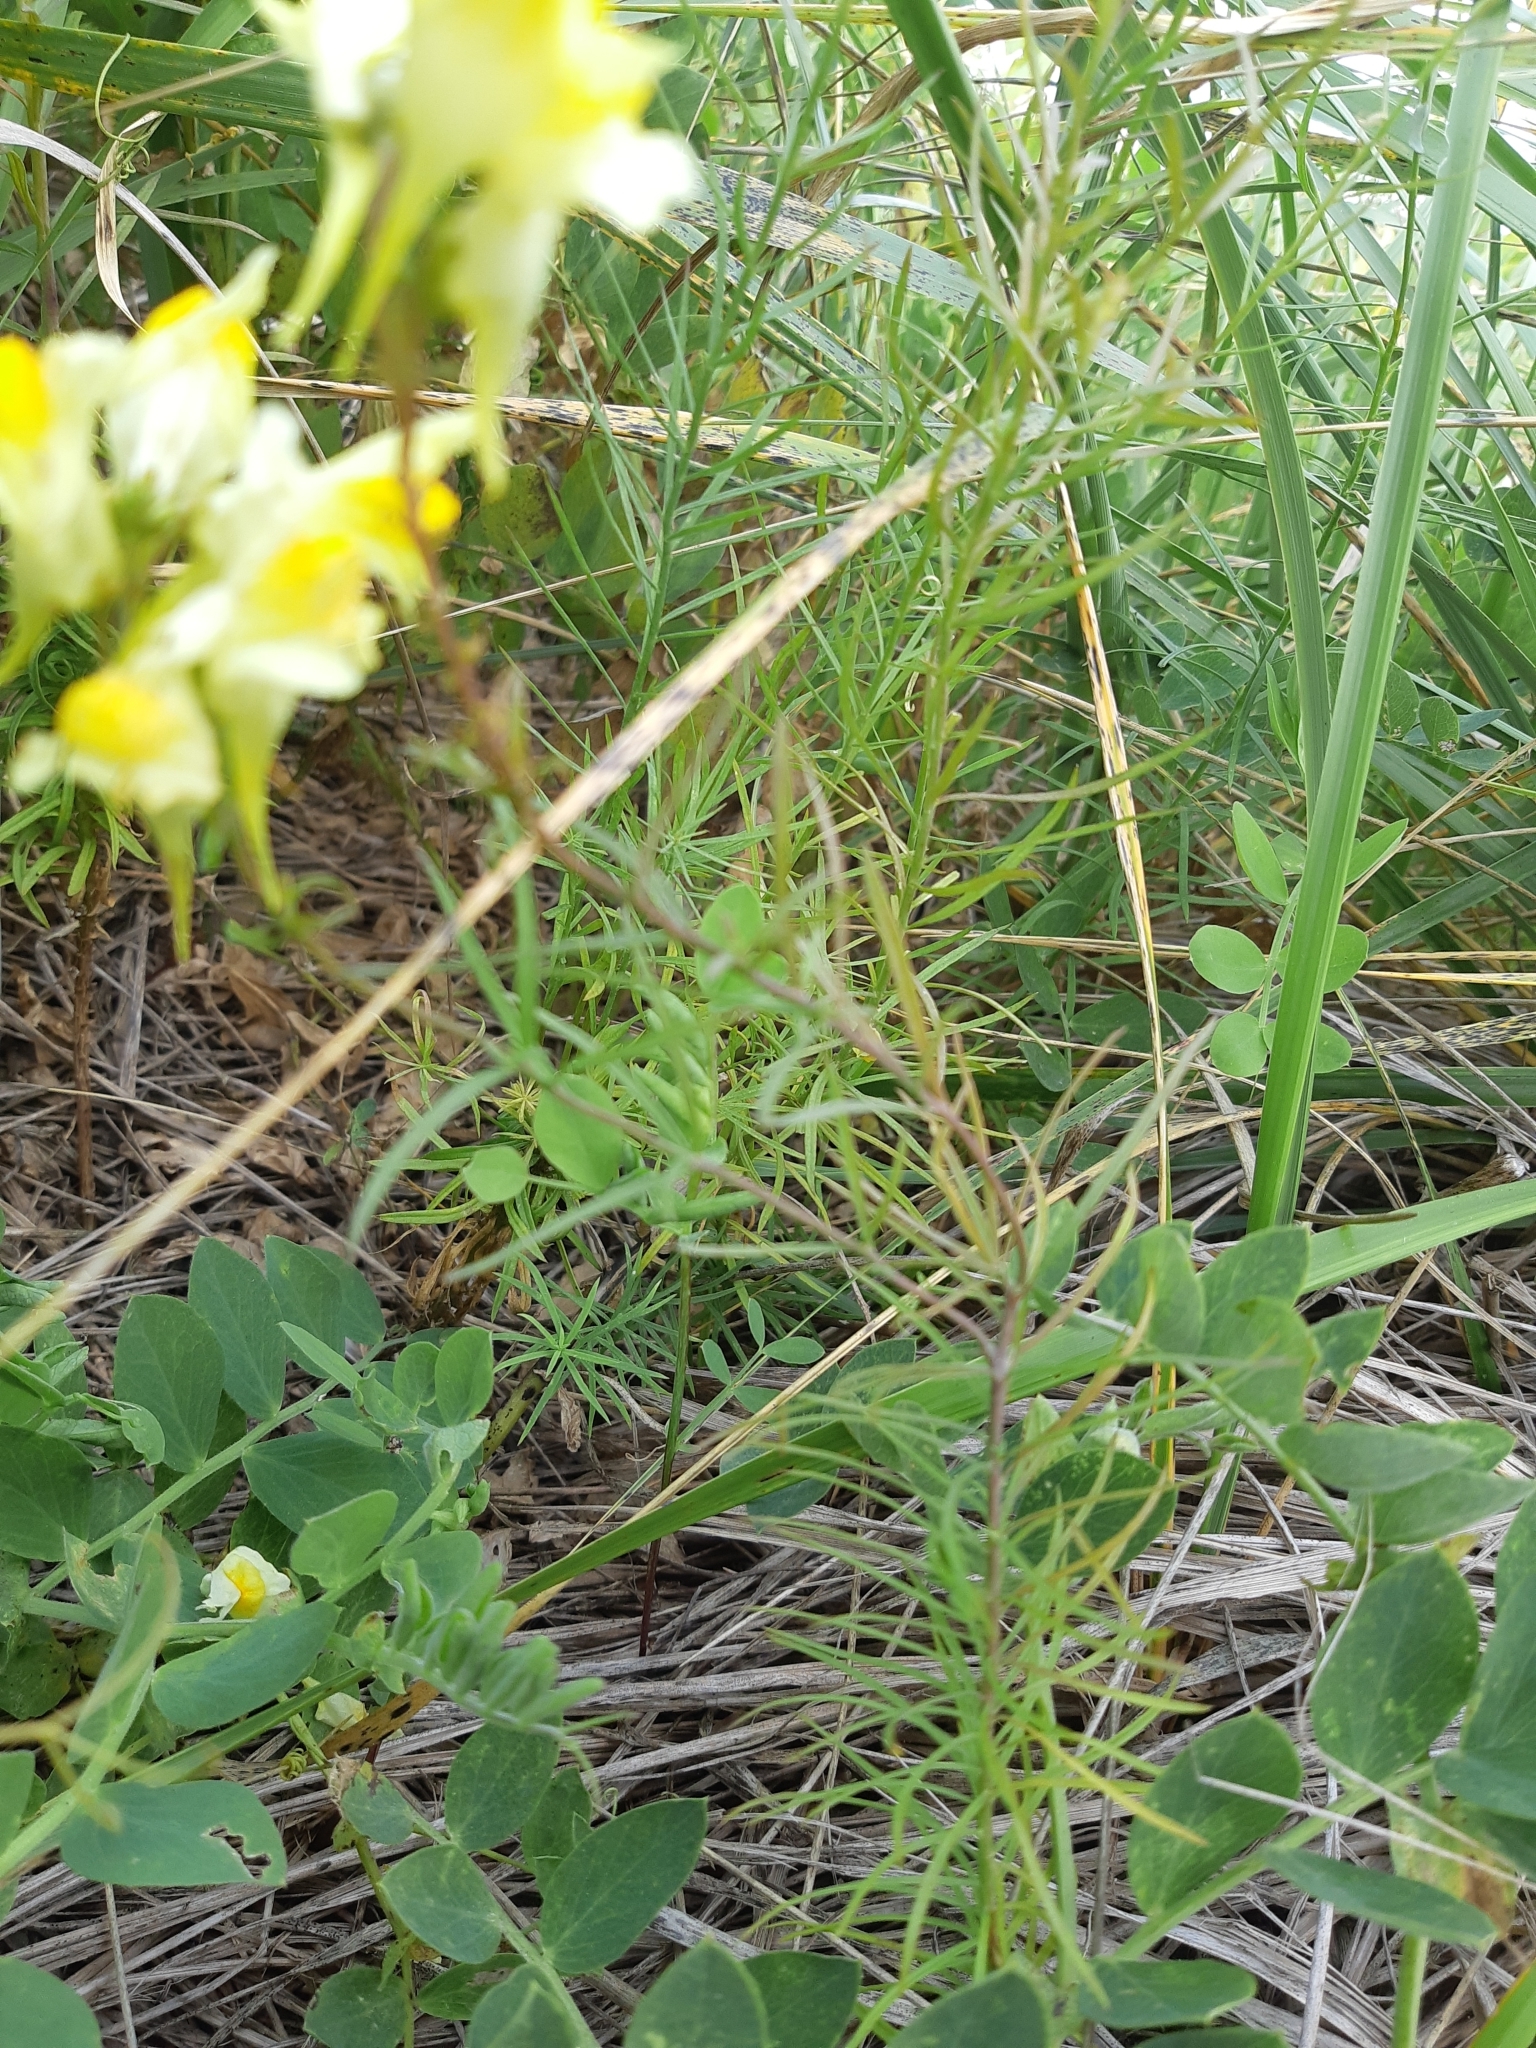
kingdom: Plantae
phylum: Tracheophyta
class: Magnoliopsida
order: Lamiales
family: Plantaginaceae
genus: Linaria
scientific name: Linaria vulgaris
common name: Butter and eggs
